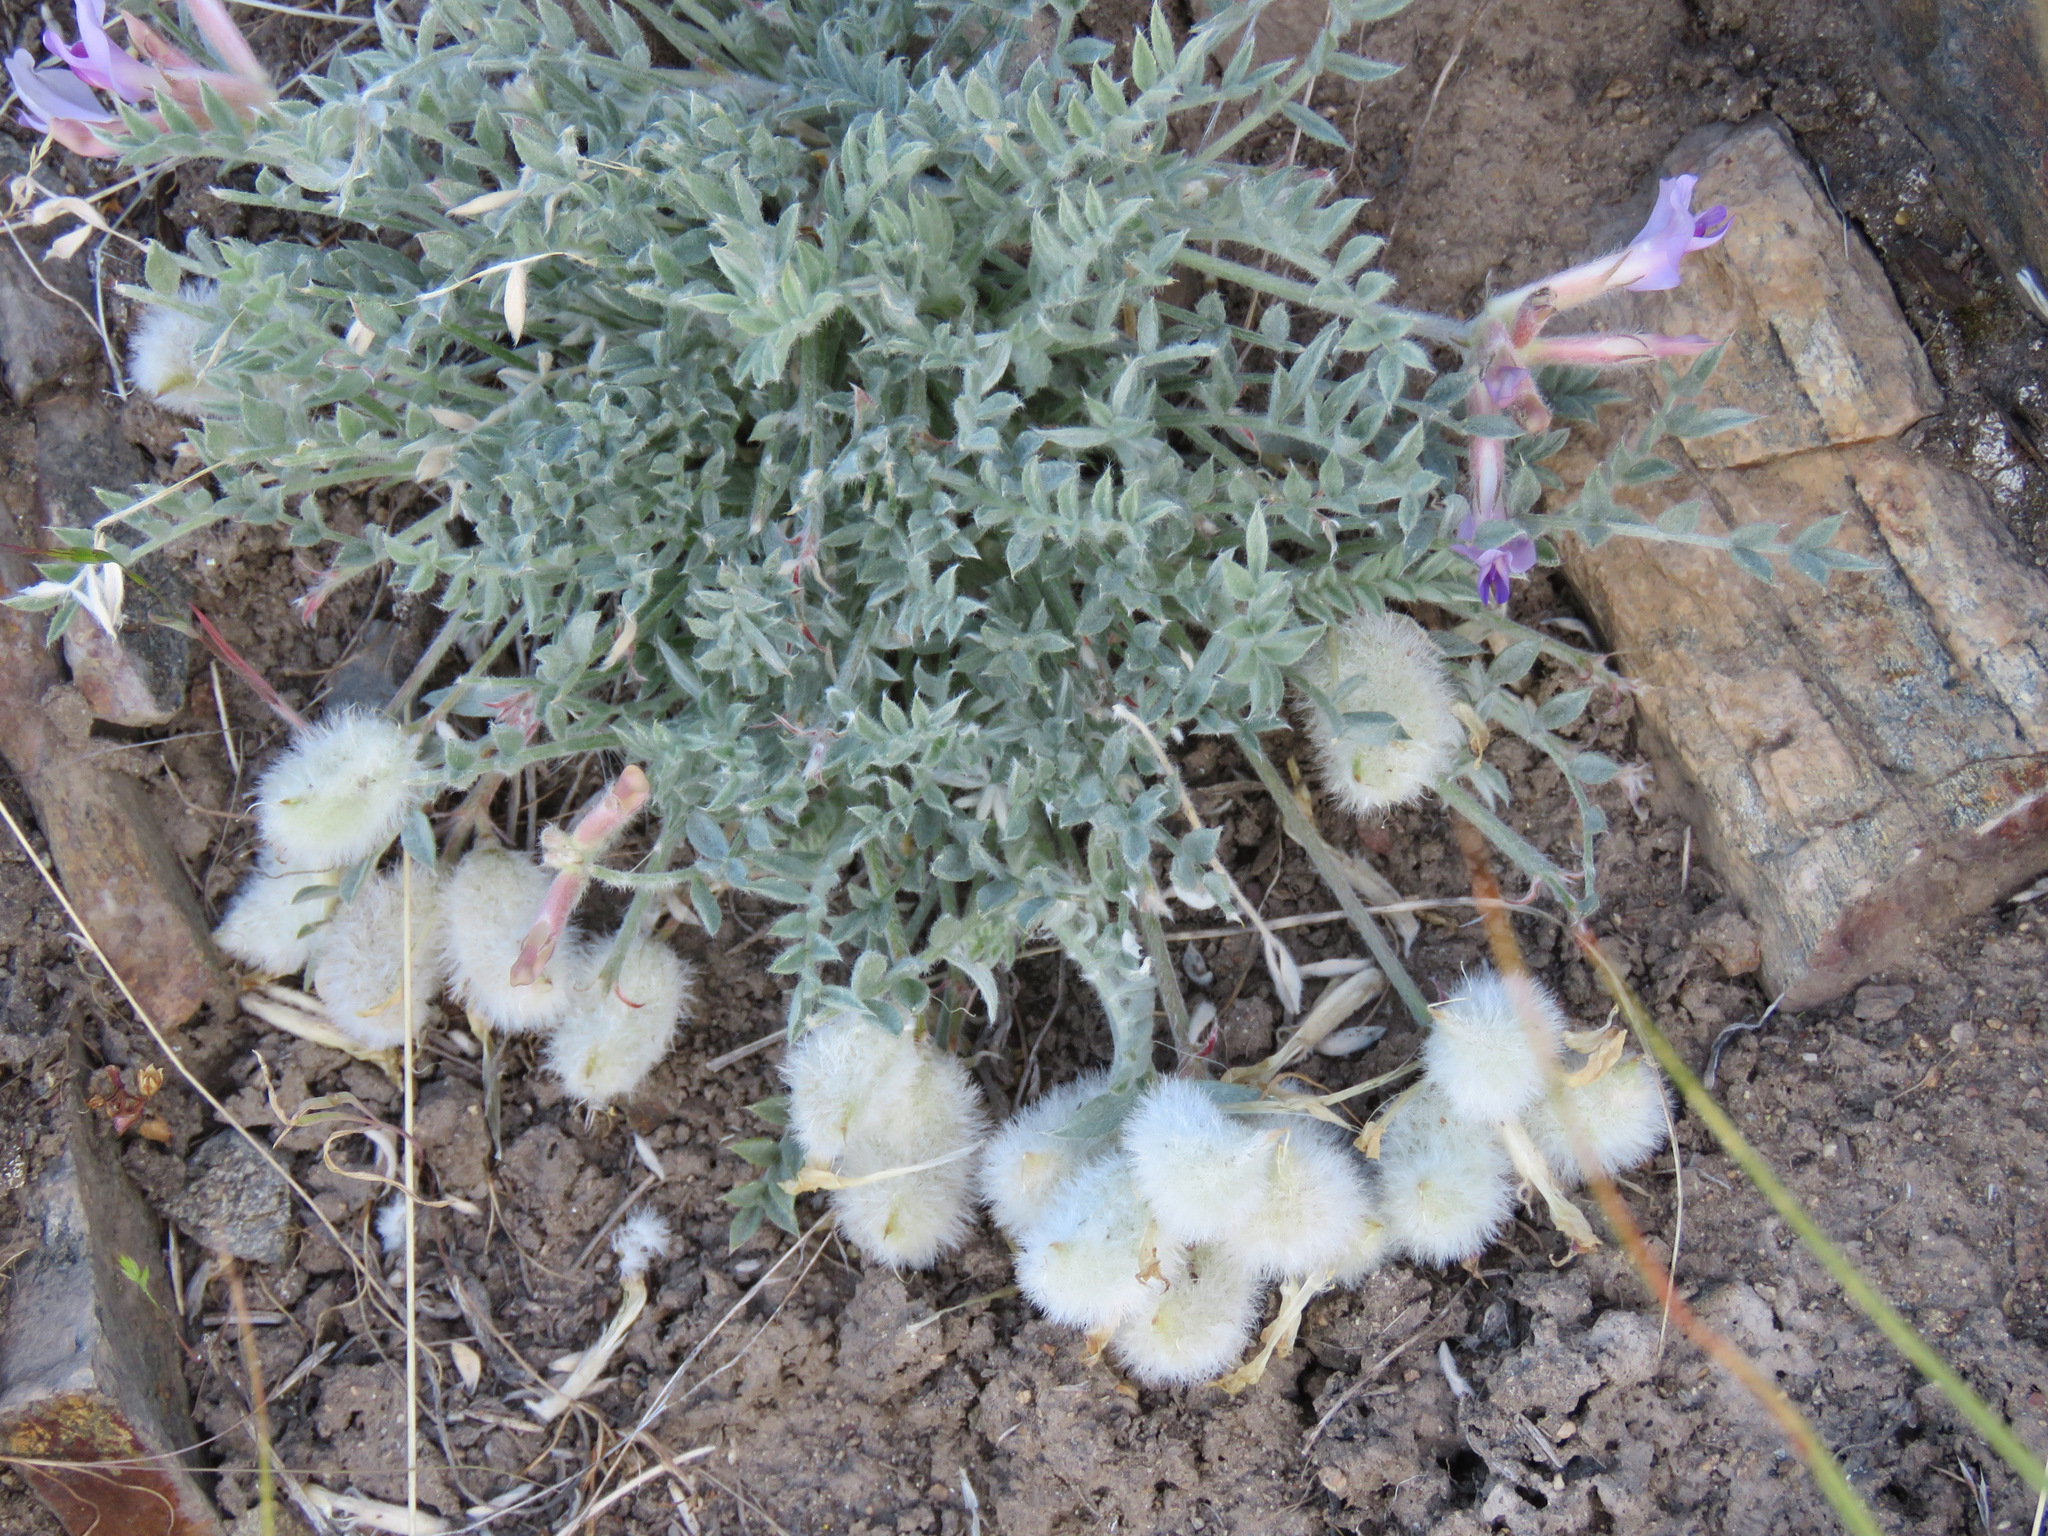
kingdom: Plantae
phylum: Tracheophyta
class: Magnoliopsida
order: Fabales
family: Fabaceae
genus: Astragalus
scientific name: Astragalus purshii
